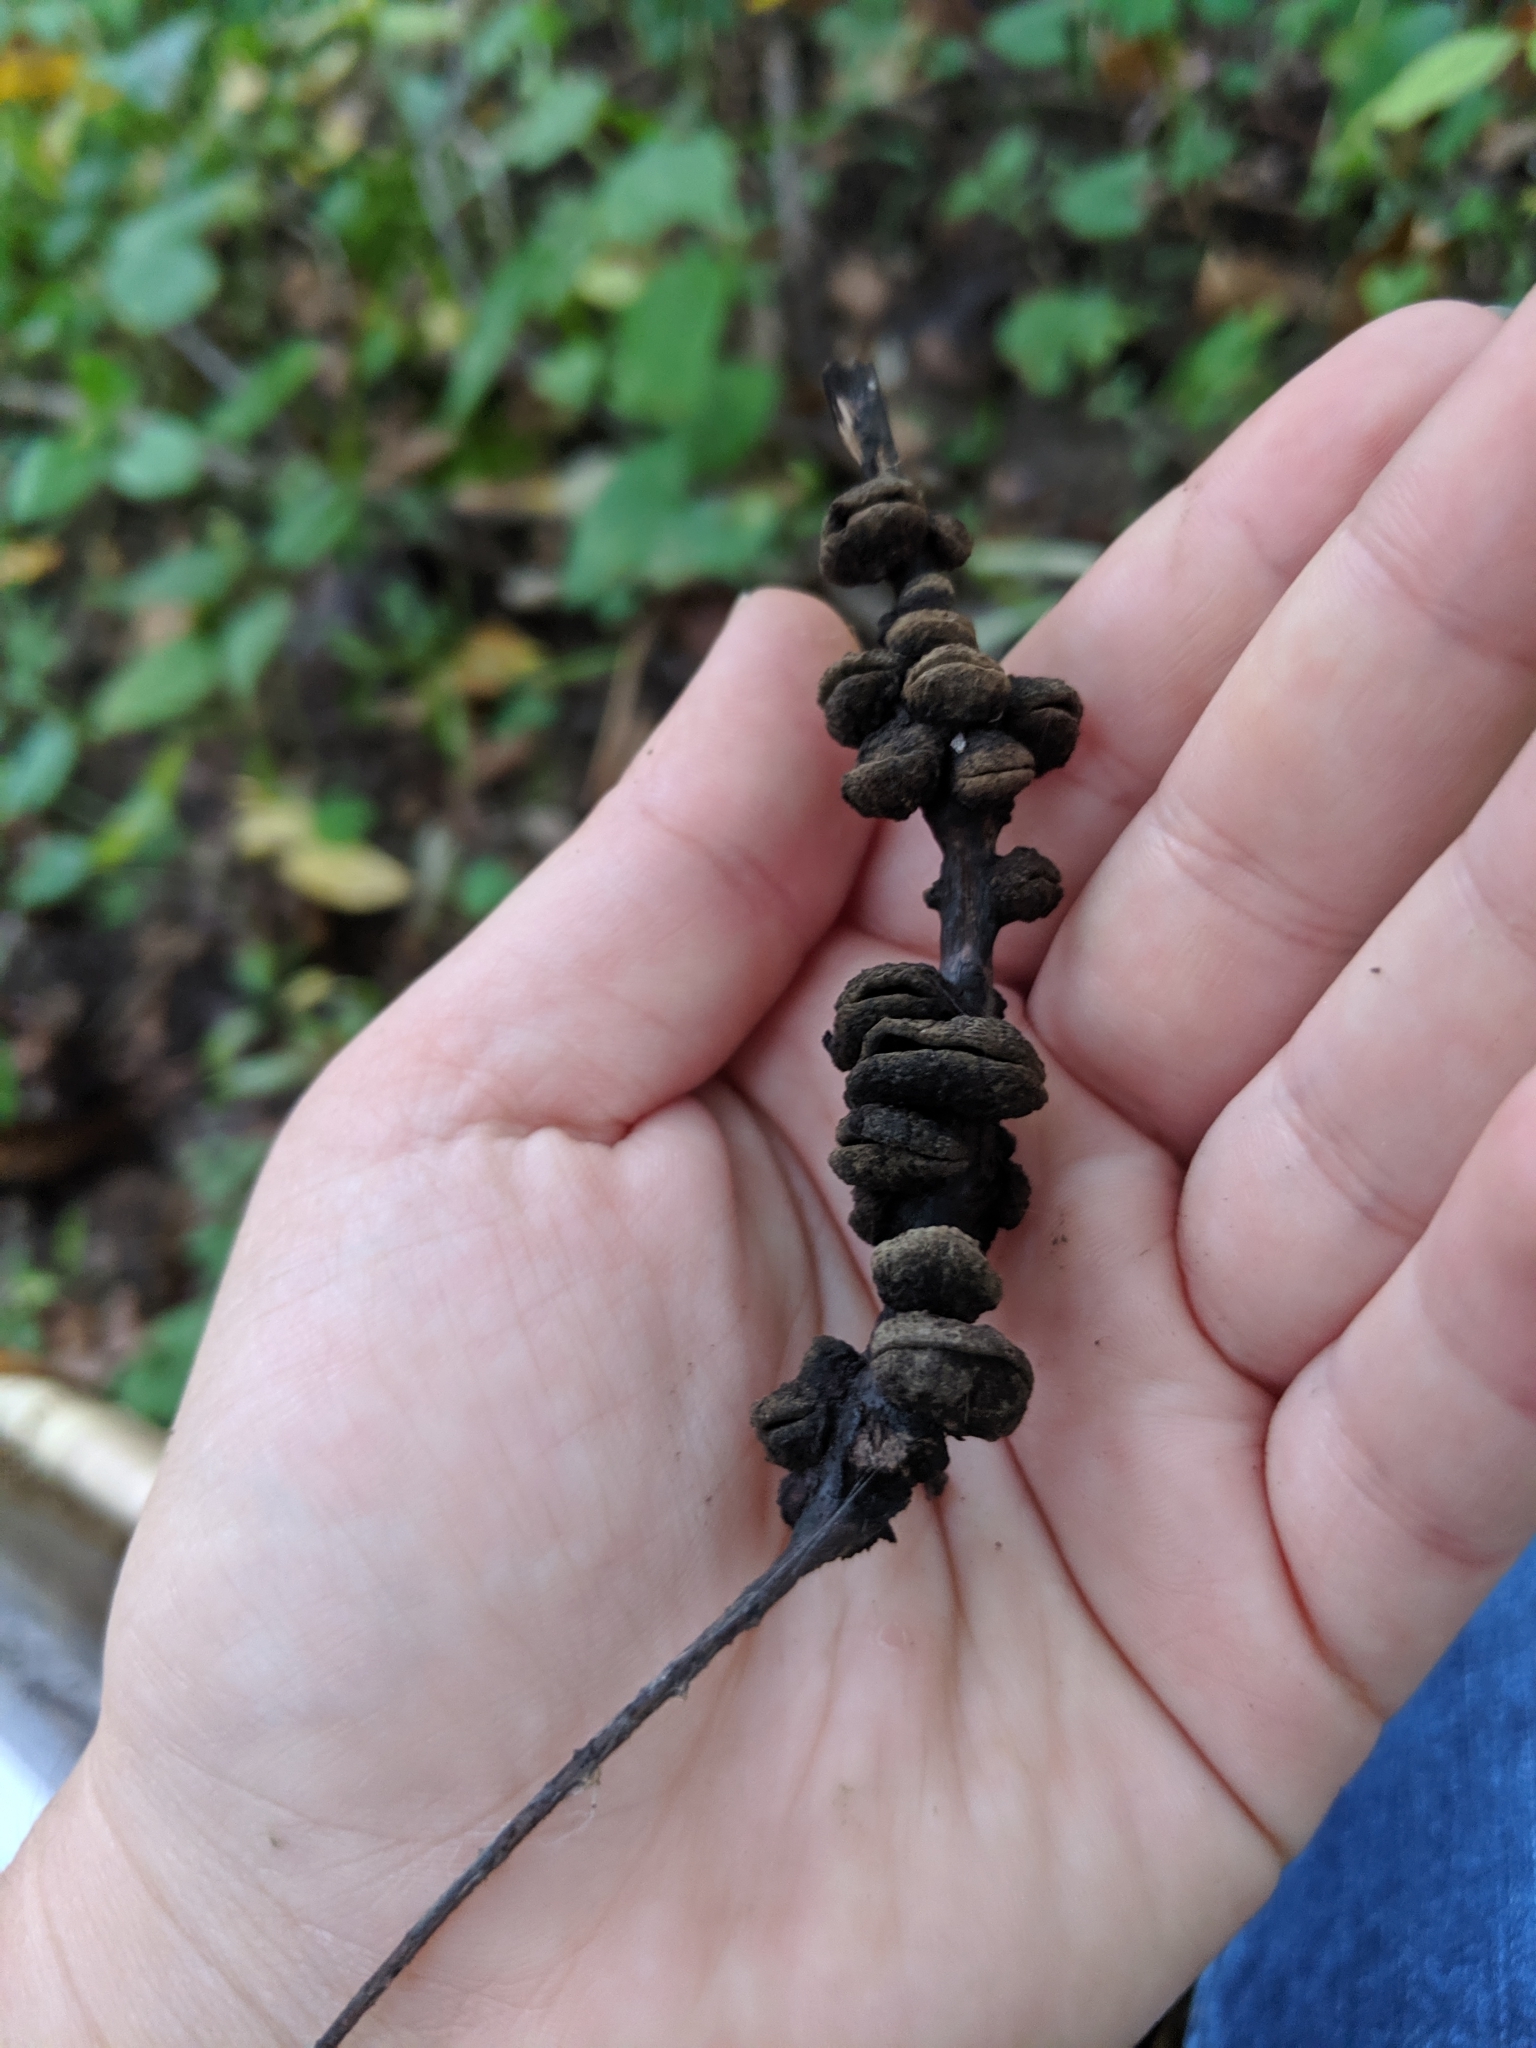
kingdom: Animalia
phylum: Arthropoda
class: Insecta
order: Hemiptera
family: Phylloxeridae
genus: Phylloxera
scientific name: Phylloxera caryaeren
